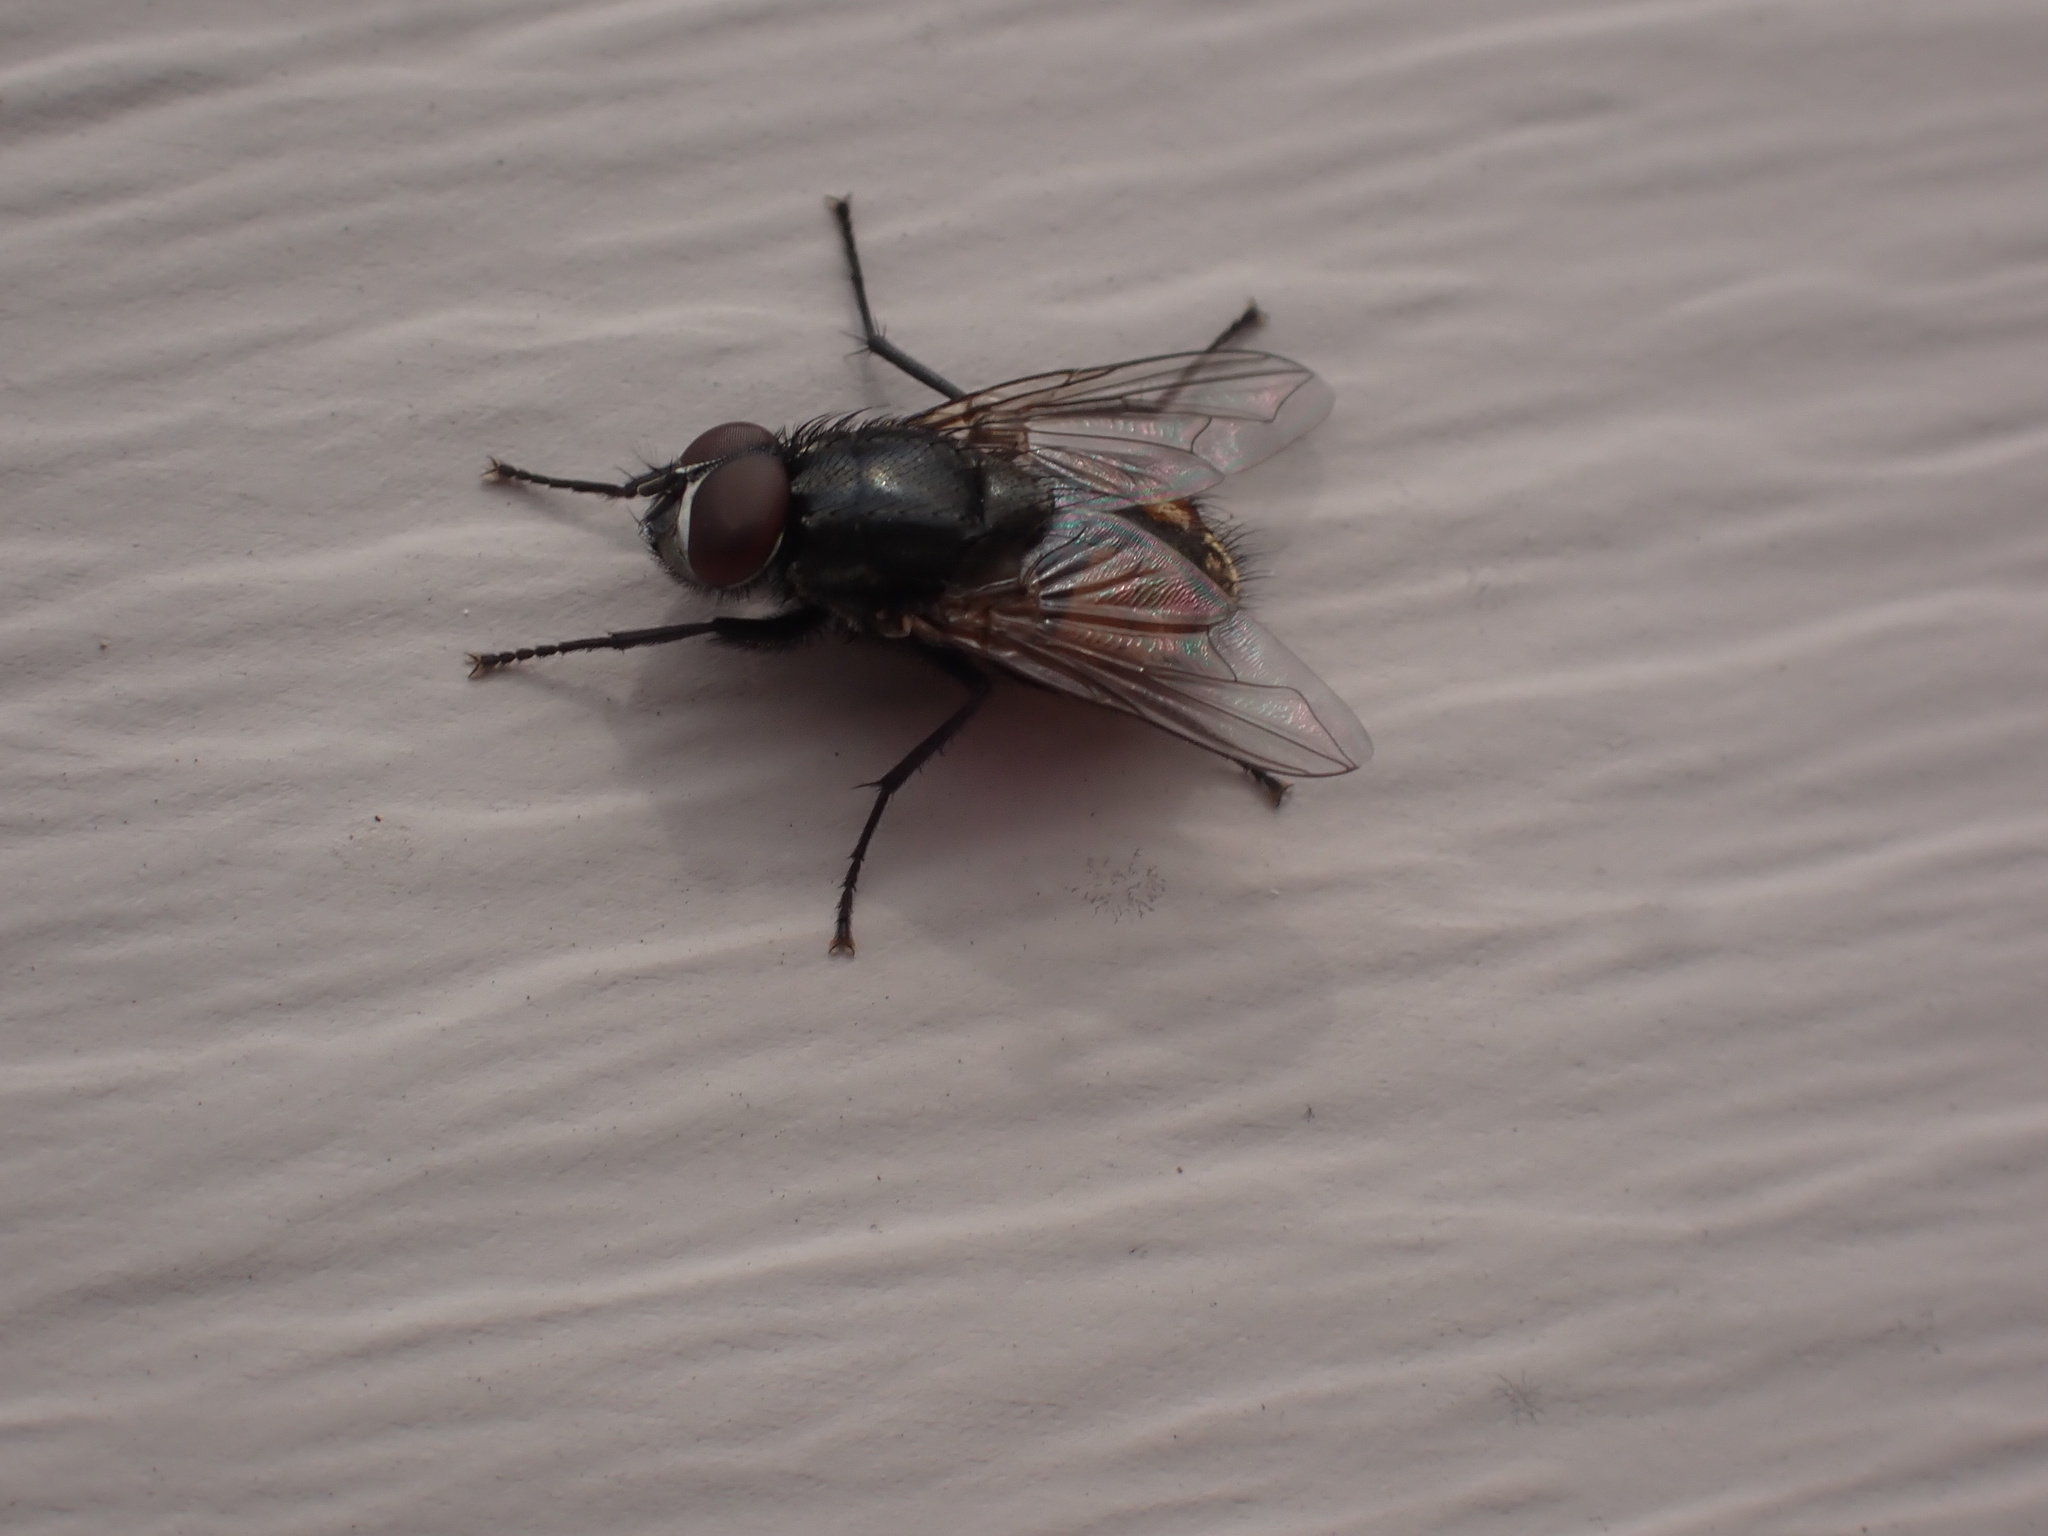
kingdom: Animalia
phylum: Arthropoda
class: Insecta
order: Diptera
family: Muscidae
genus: Musca
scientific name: Musca autumnalis
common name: Face fly
